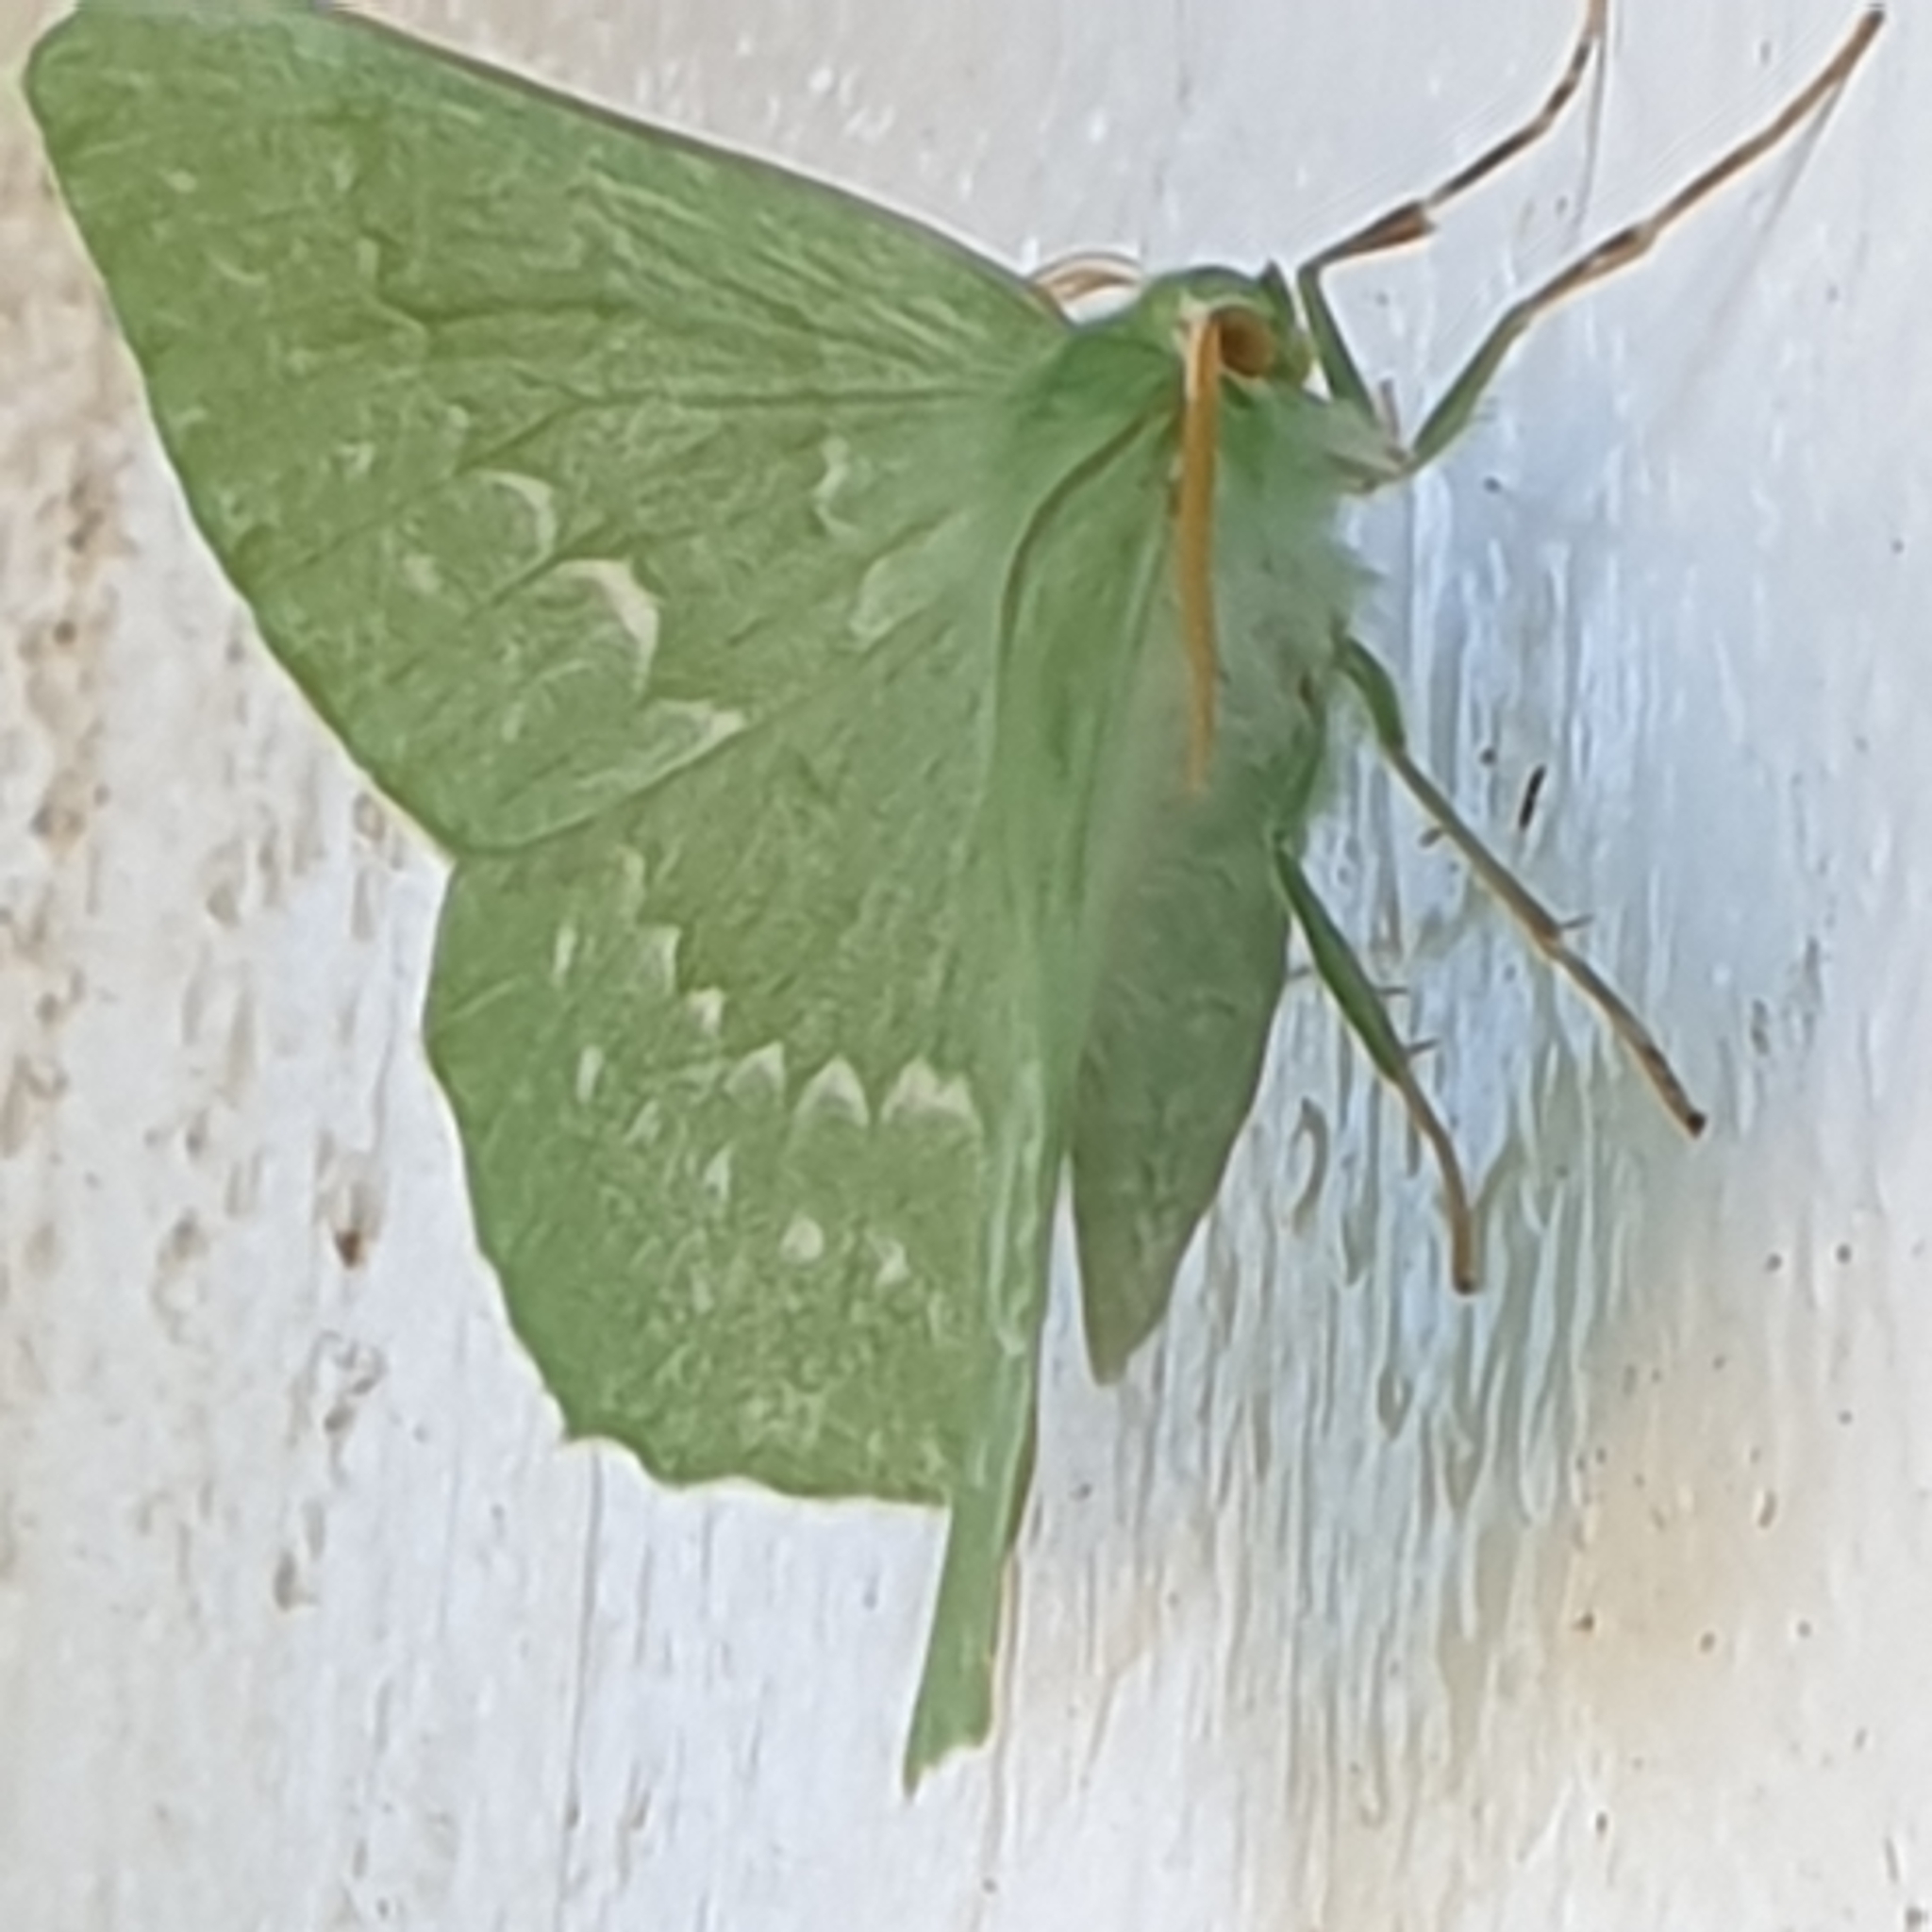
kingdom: Animalia
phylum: Arthropoda
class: Insecta
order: Lepidoptera
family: Geometridae
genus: Geometra
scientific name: Geometra papilionaria
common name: Large emerald
